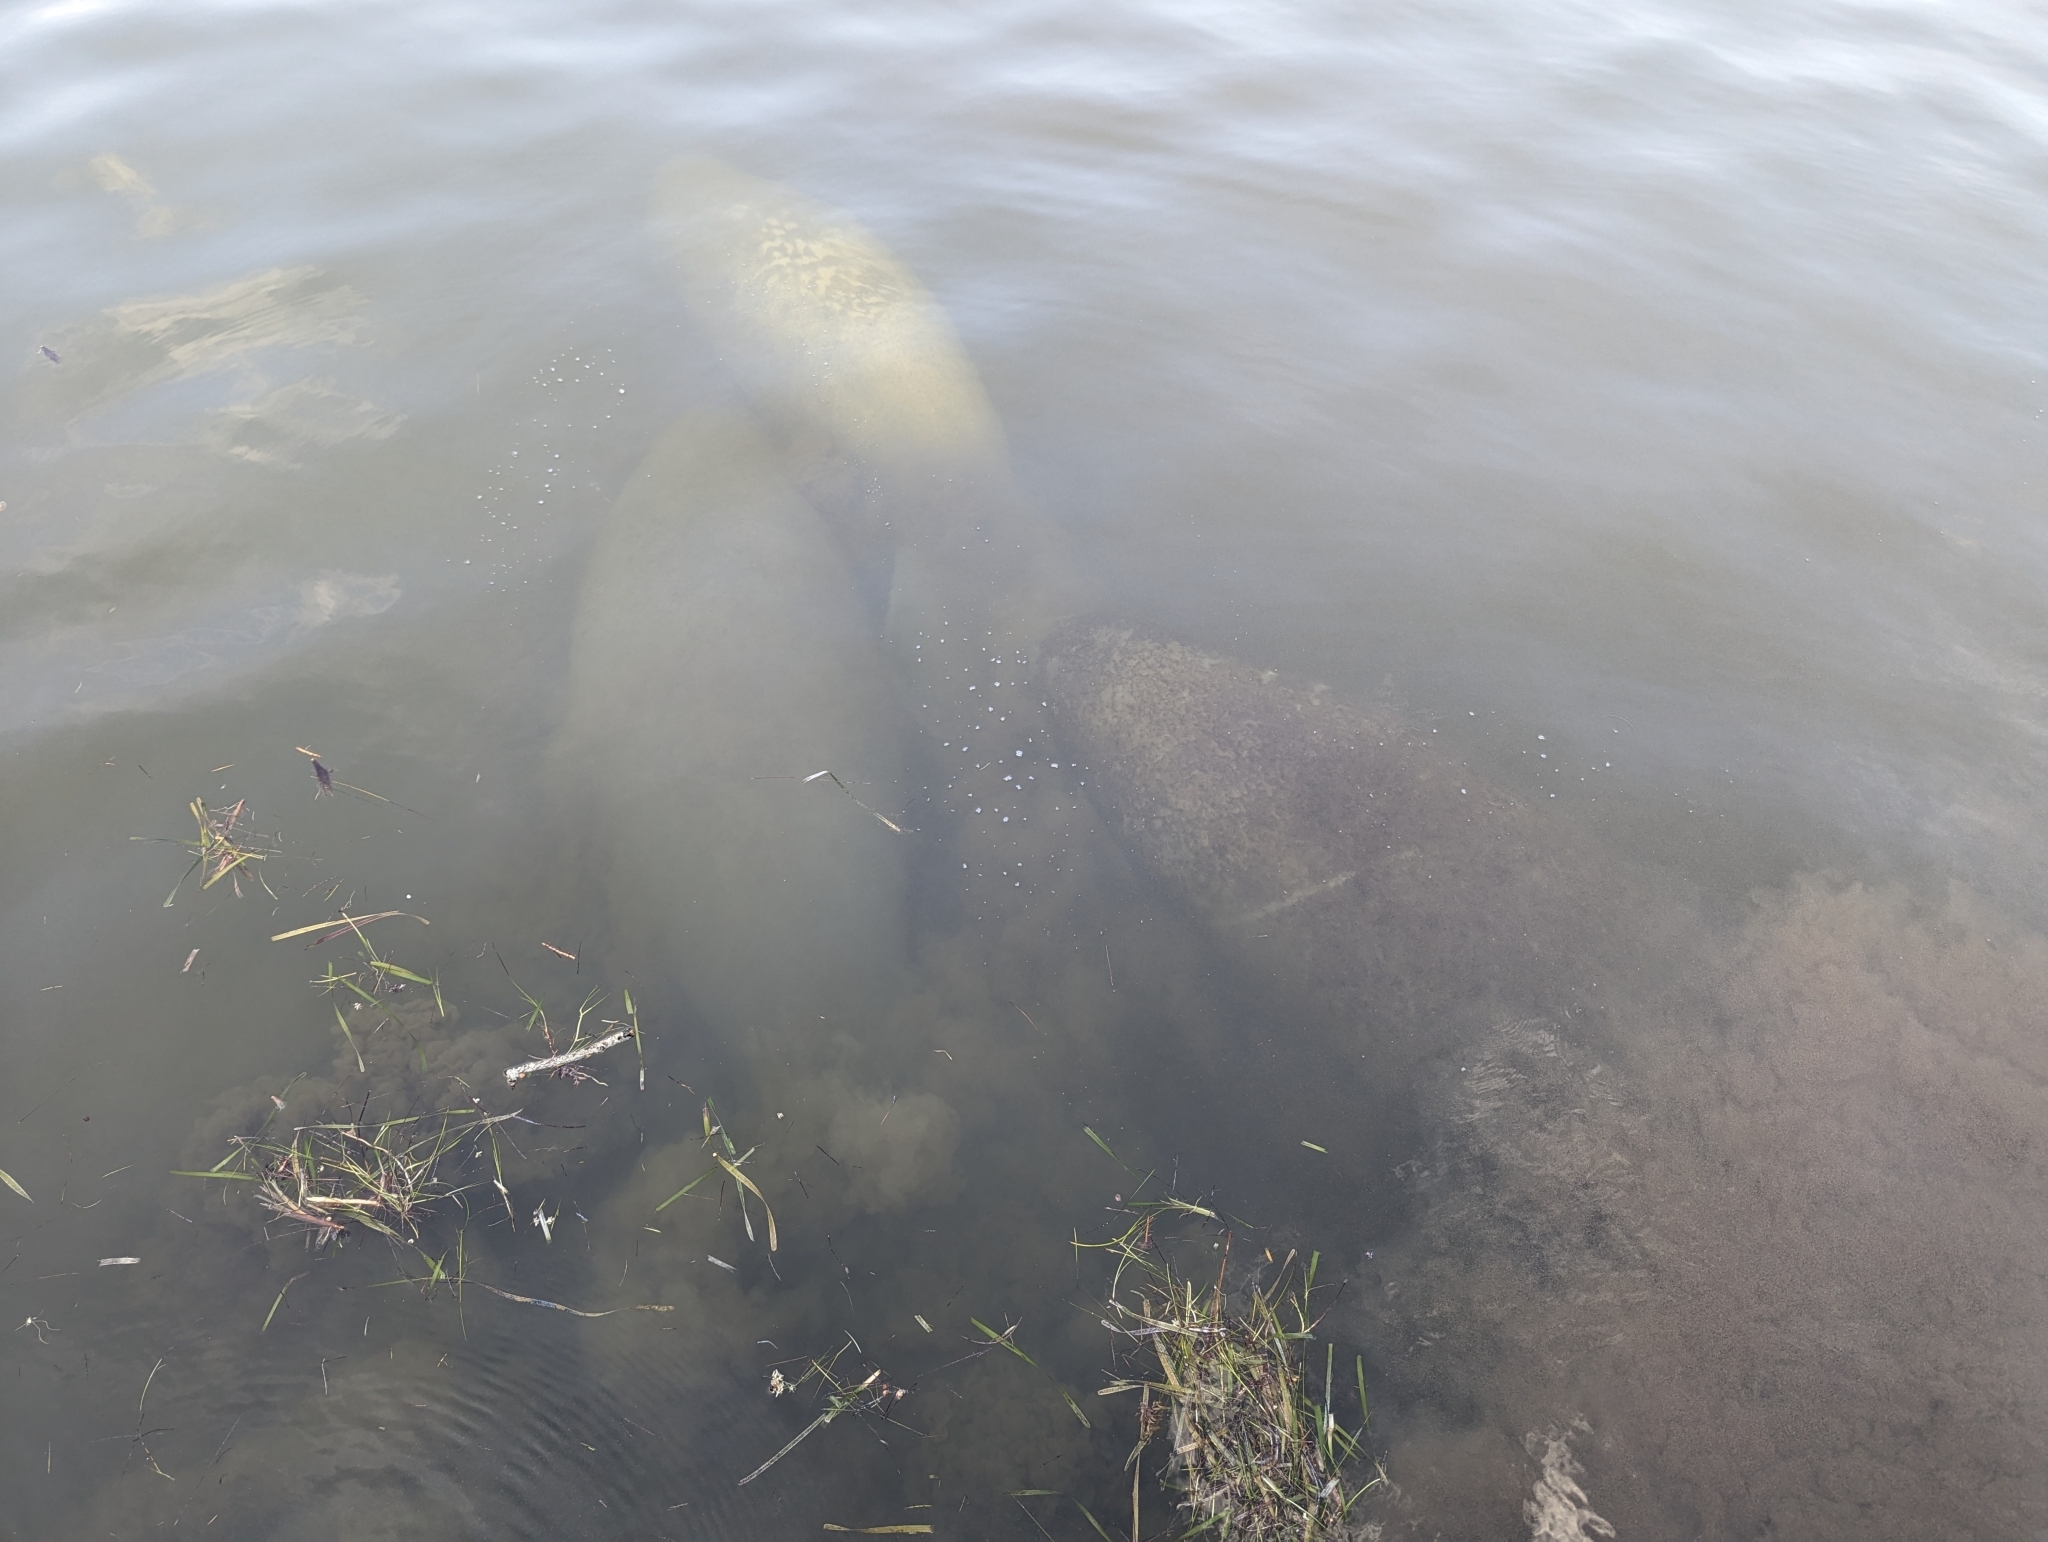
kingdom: Animalia
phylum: Chordata
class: Mammalia
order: Sirenia
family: Trichechidae
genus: Trichechus
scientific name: Trichechus manatus
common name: West indian manatee
